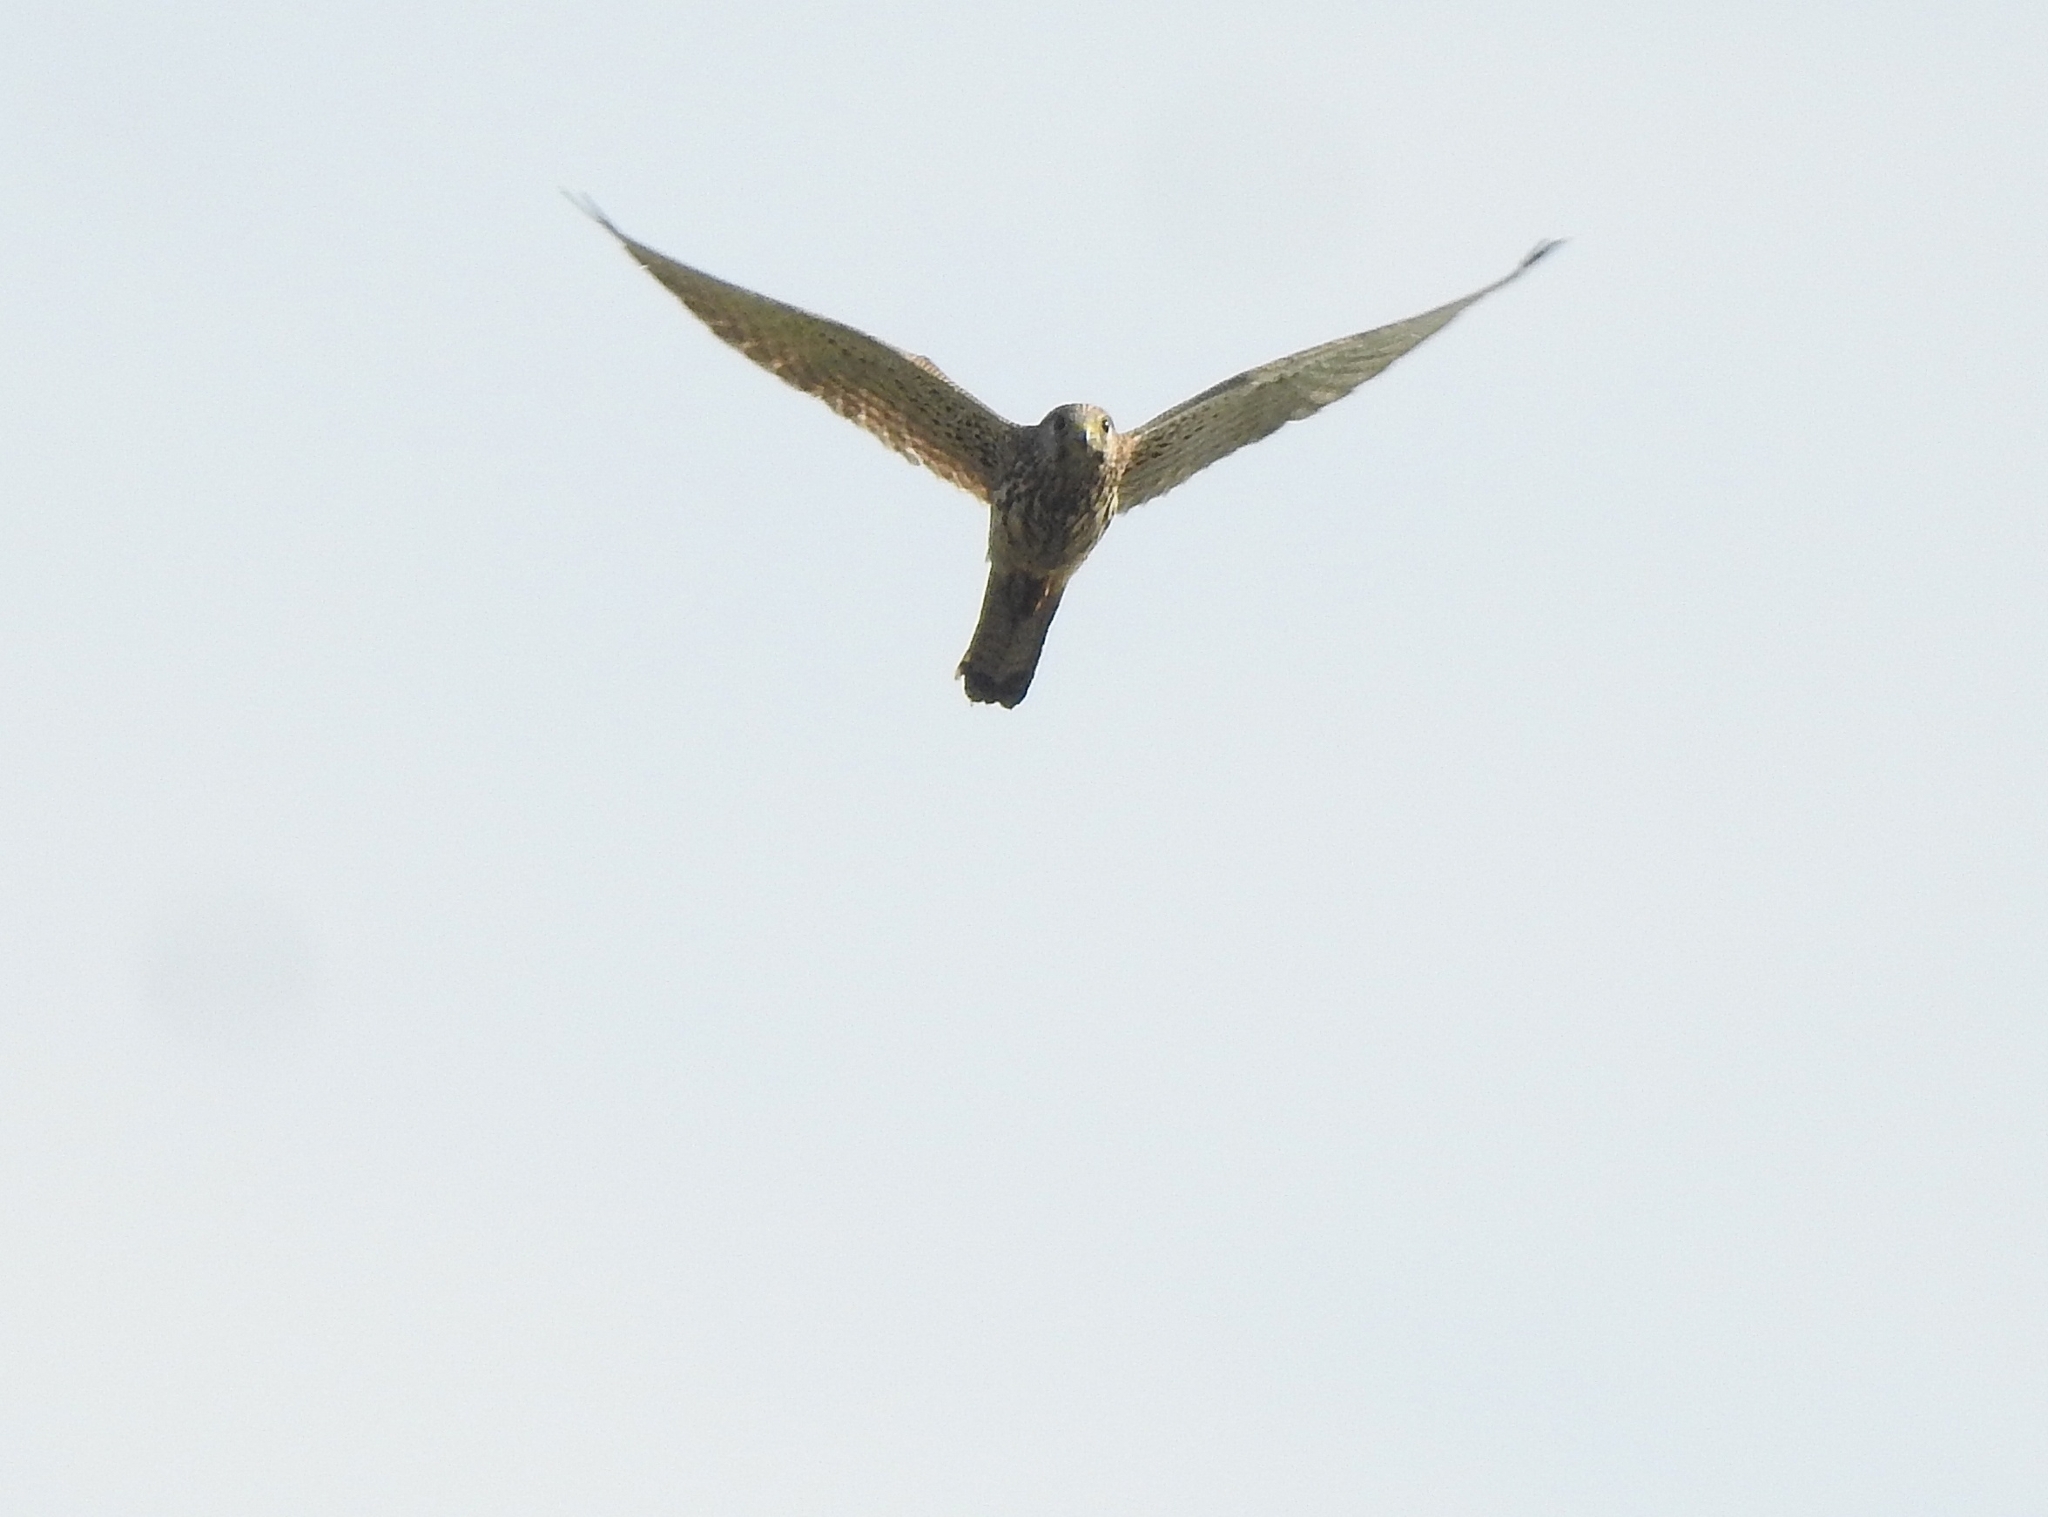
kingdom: Animalia
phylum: Chordata
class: Aves
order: Falconiformes
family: Falconidae
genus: Falco
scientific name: Falco tinnunculus
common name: Common kestrel
